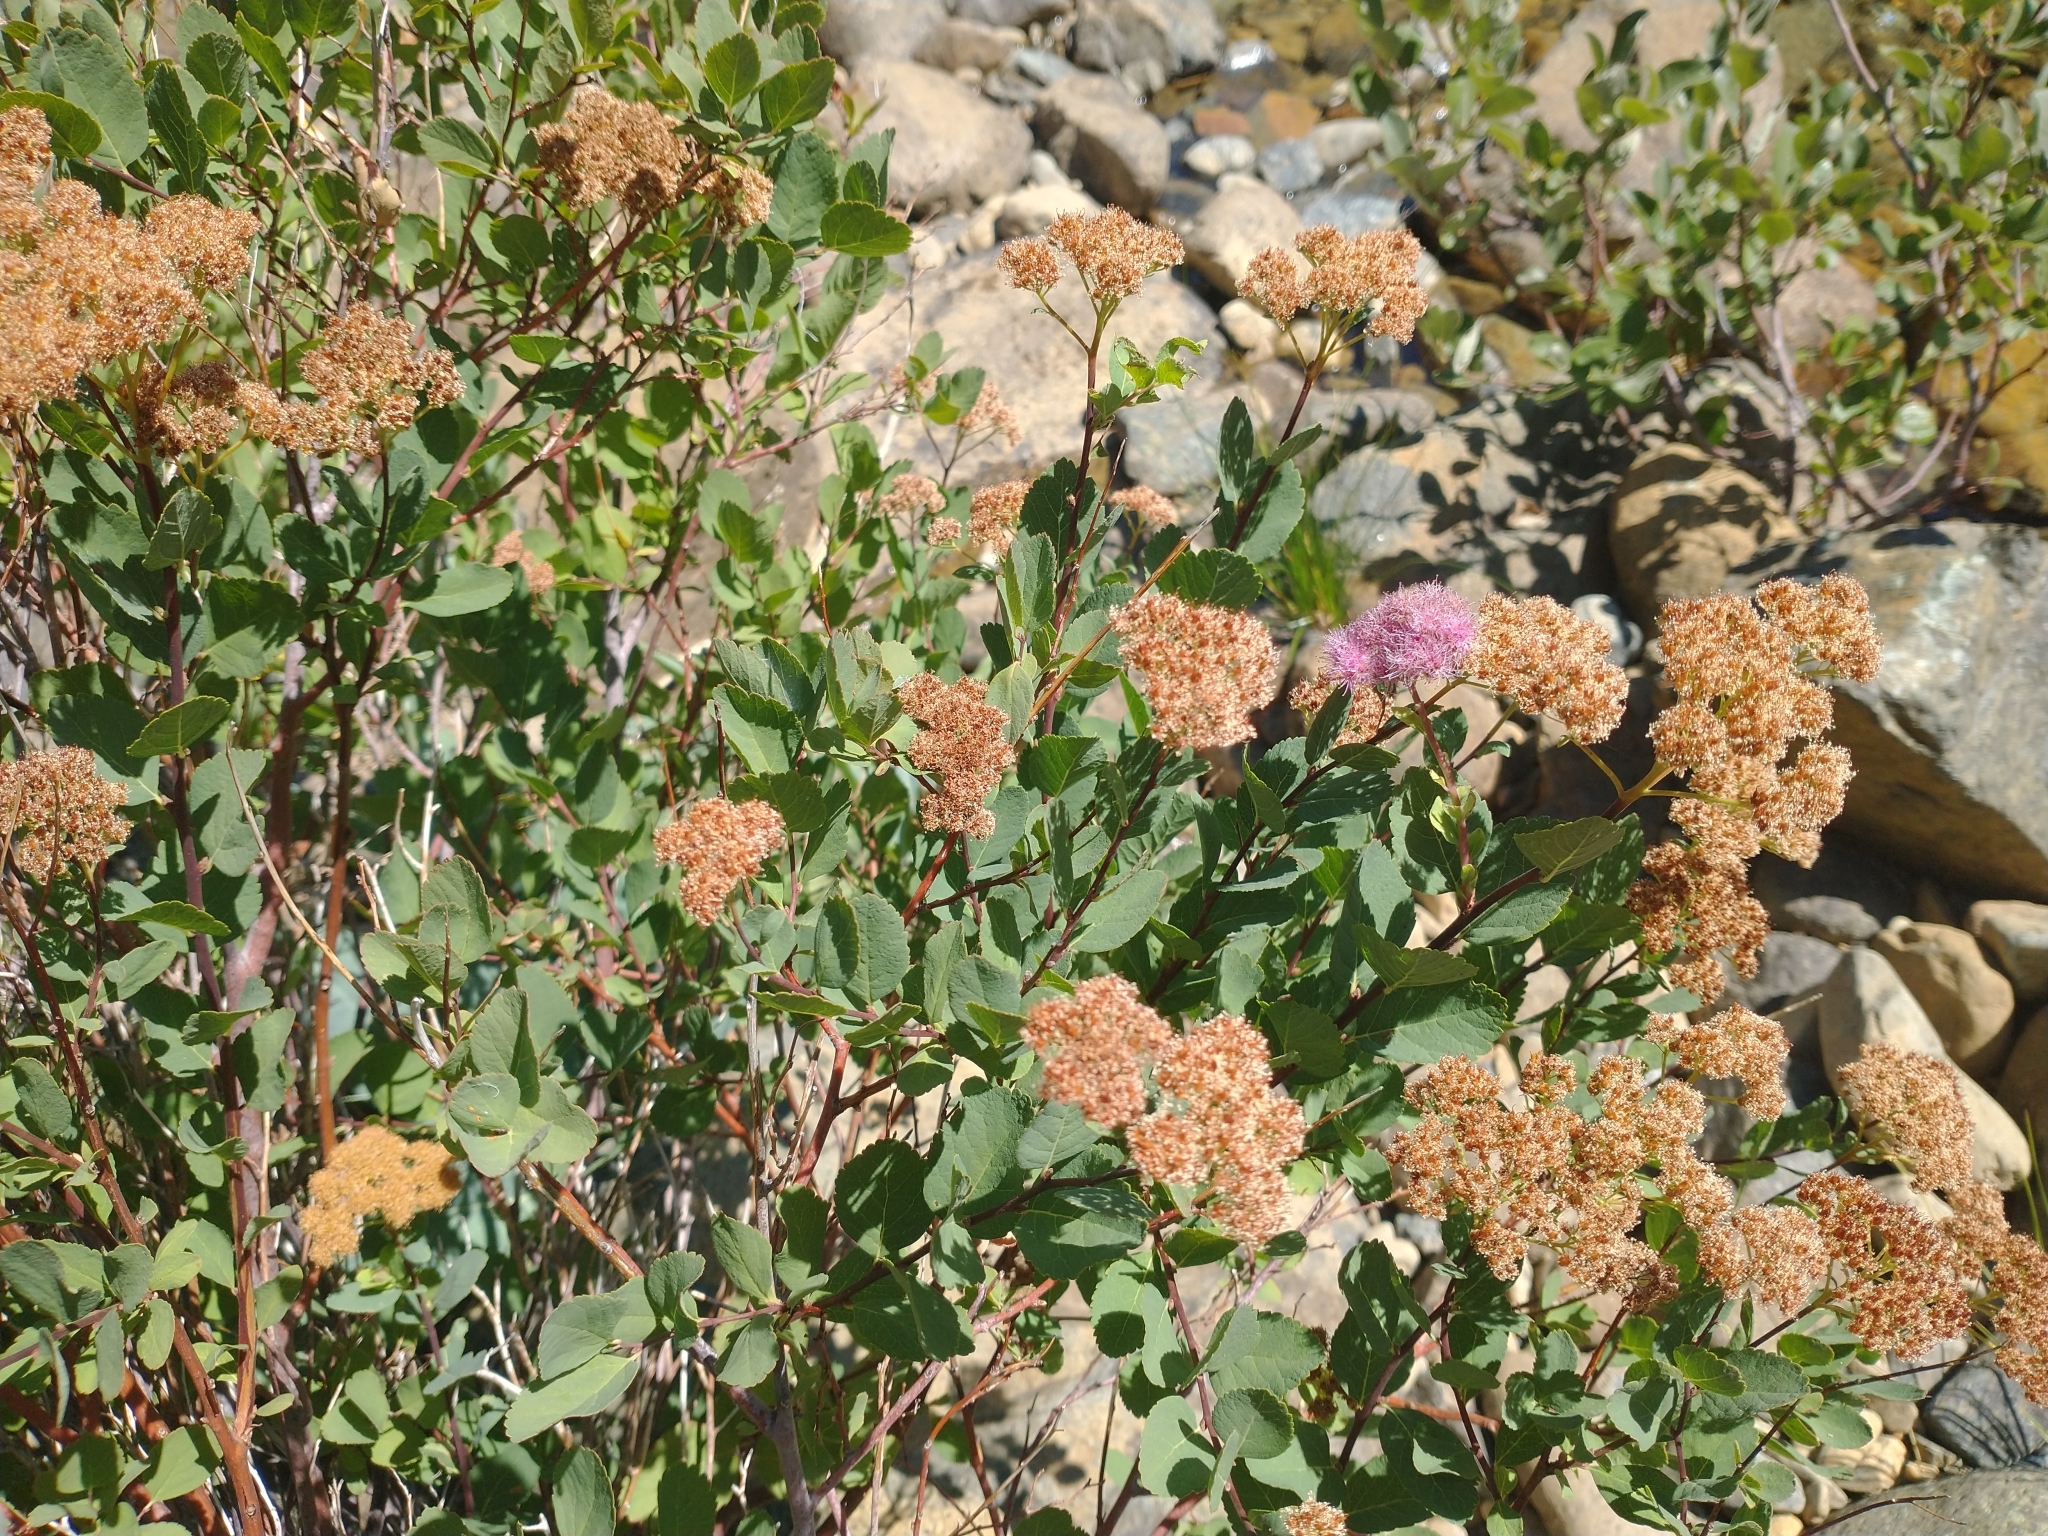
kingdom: Plantae
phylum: Tracheophyta
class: Magnoliopsida
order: Rosales
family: Rosaceae
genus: Spiraea
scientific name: Spiraea splendens
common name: Subalpine meadowsweet
